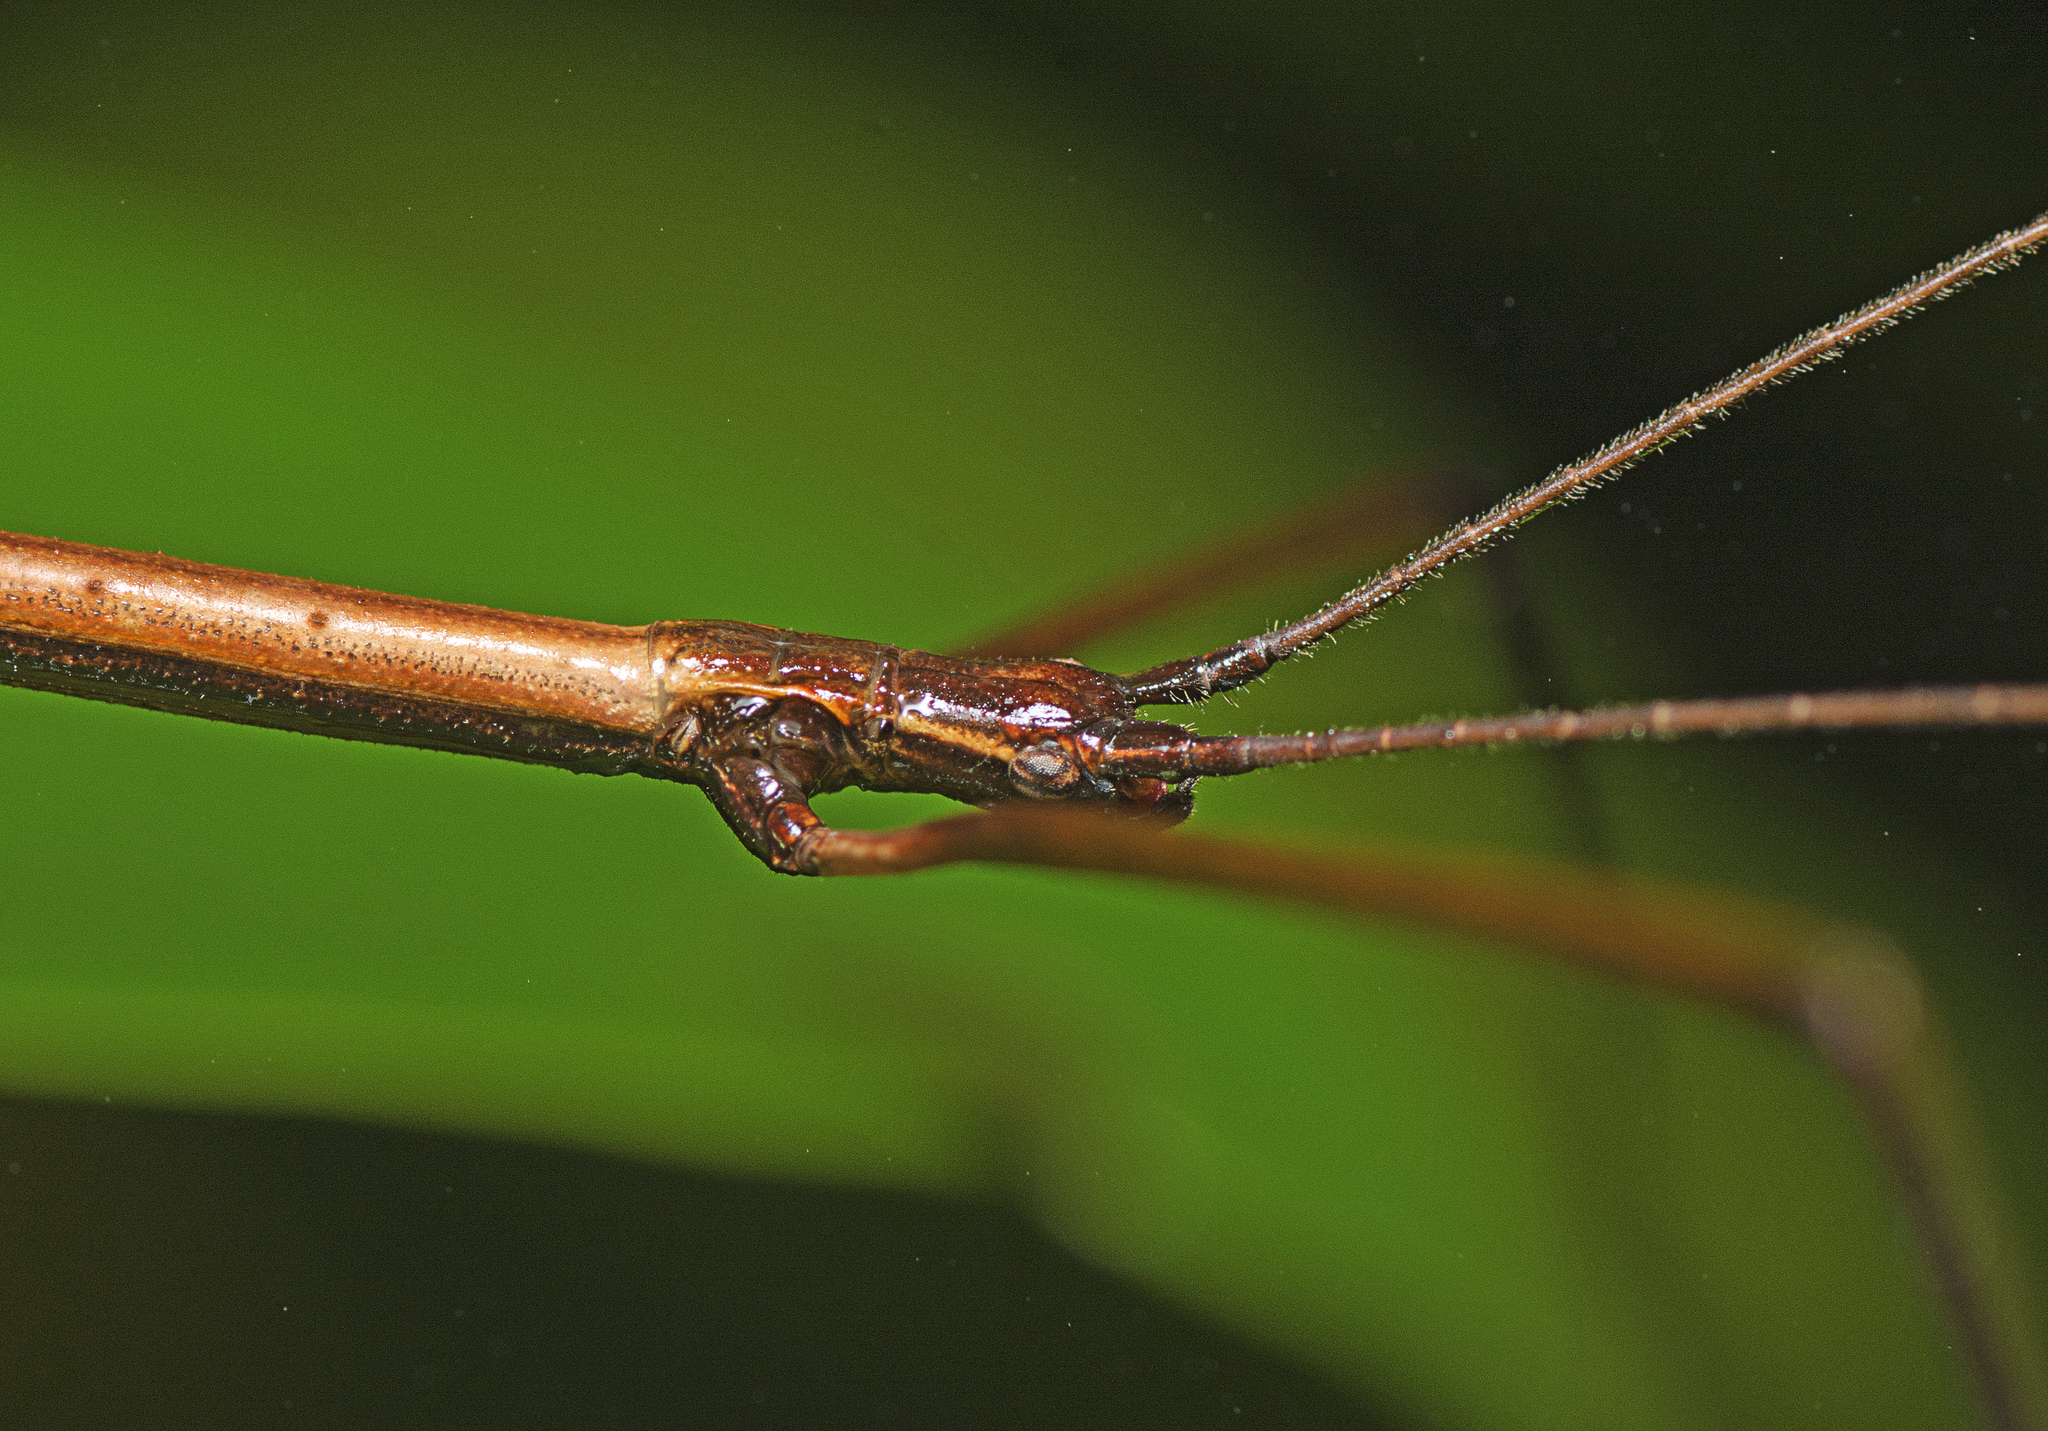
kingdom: Animalia
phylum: Arthropoda
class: Insecta
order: Phasmida
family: Lonchodidae
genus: Candovia
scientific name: Candovia granulosa
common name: Granulated stick-insect
